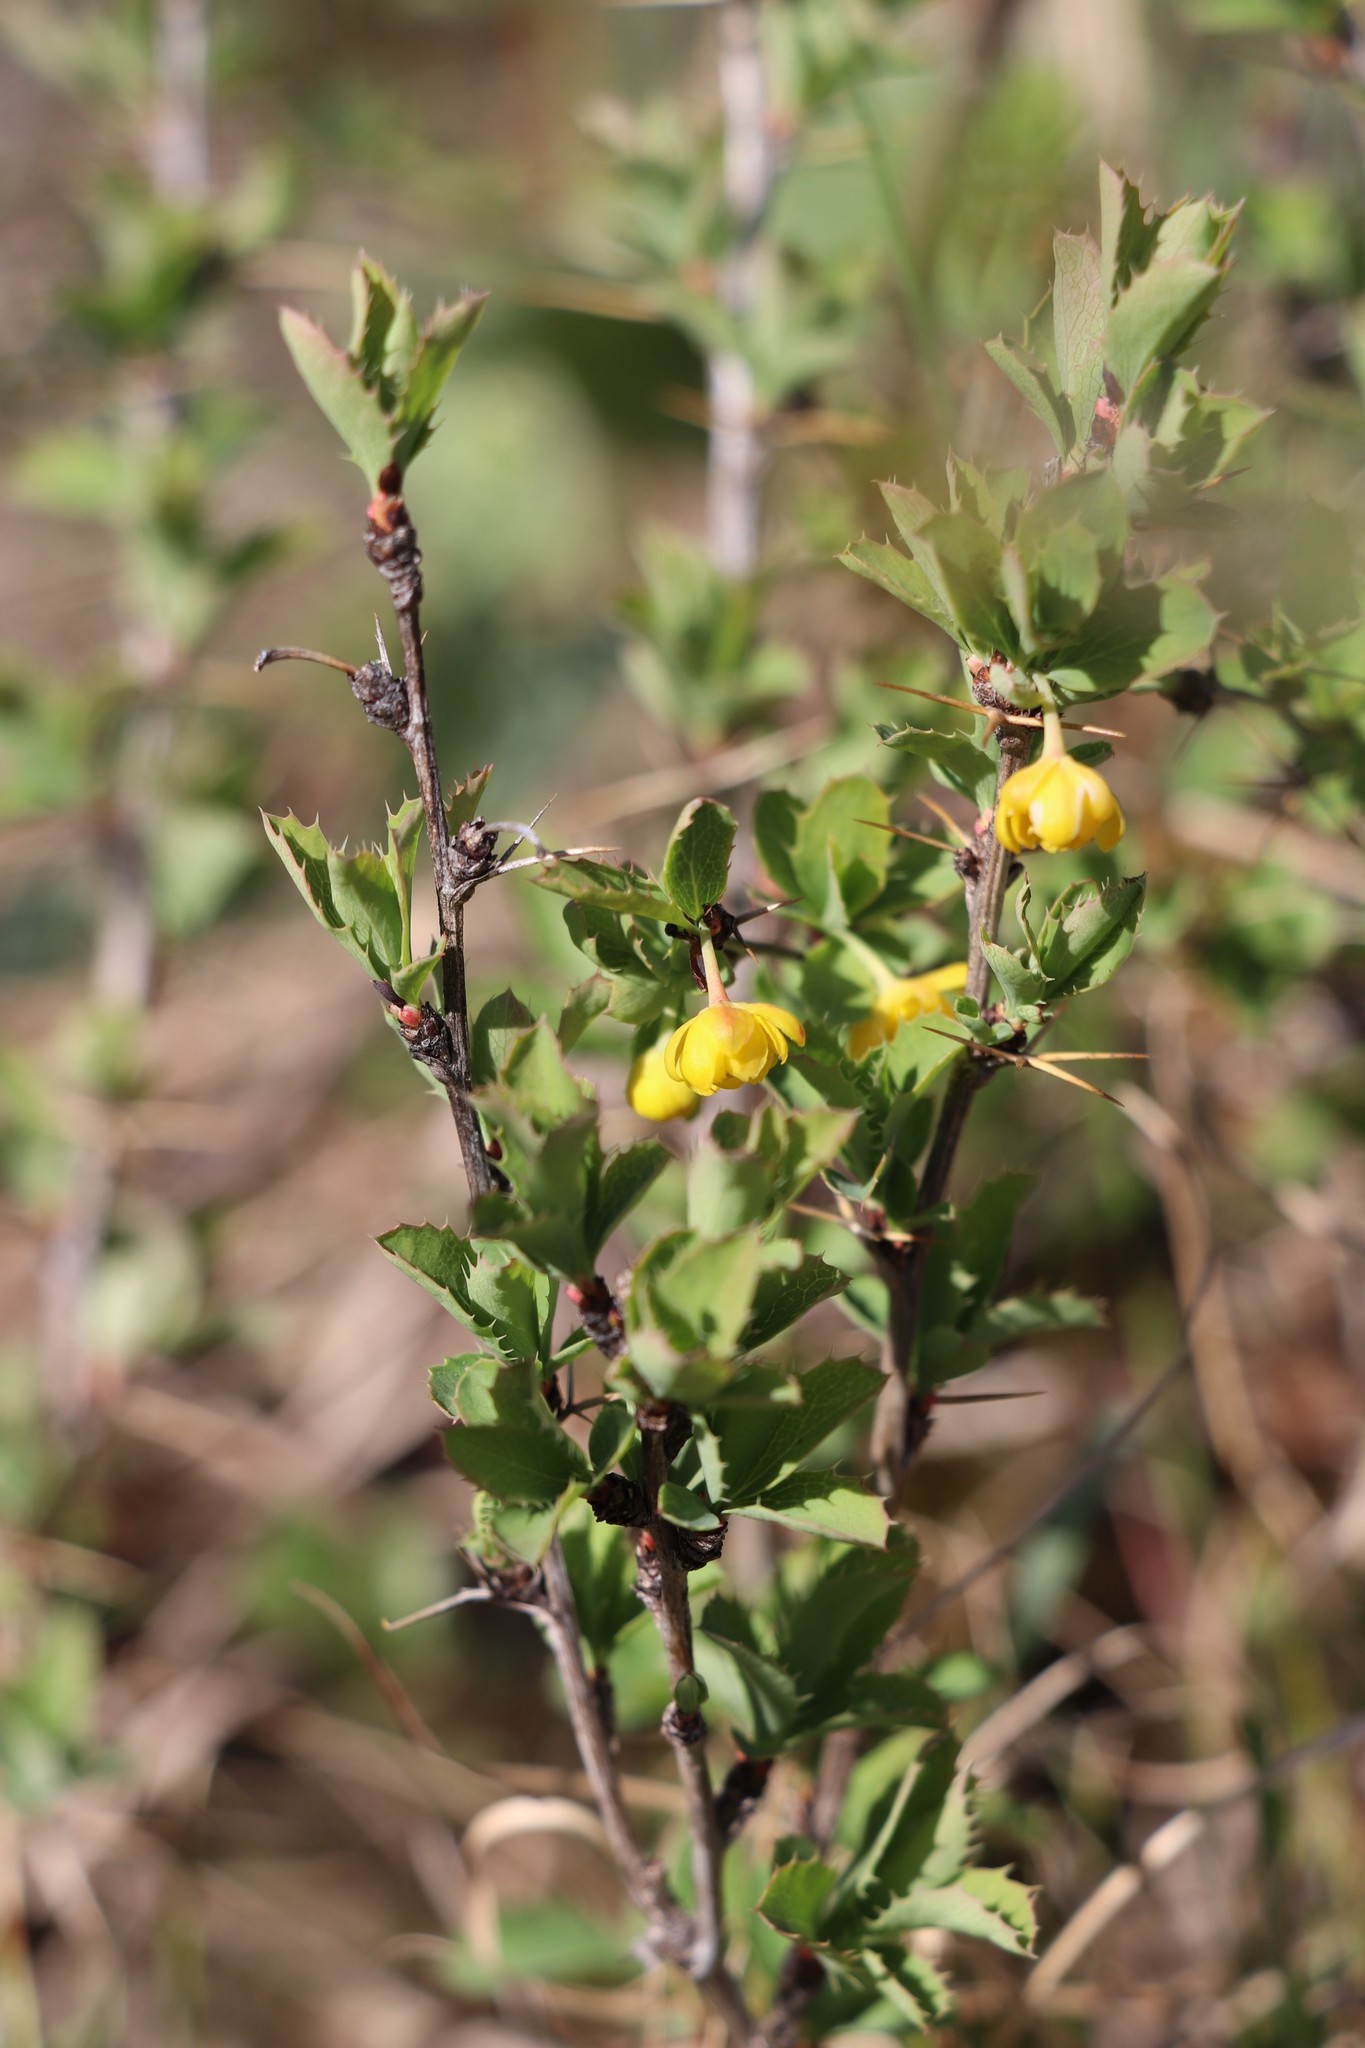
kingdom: Plantae
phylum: Tracheophyta
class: Magnoliopsida
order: Ranunculales
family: Berberidaceae
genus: Berberis
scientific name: Berberis sibirica
